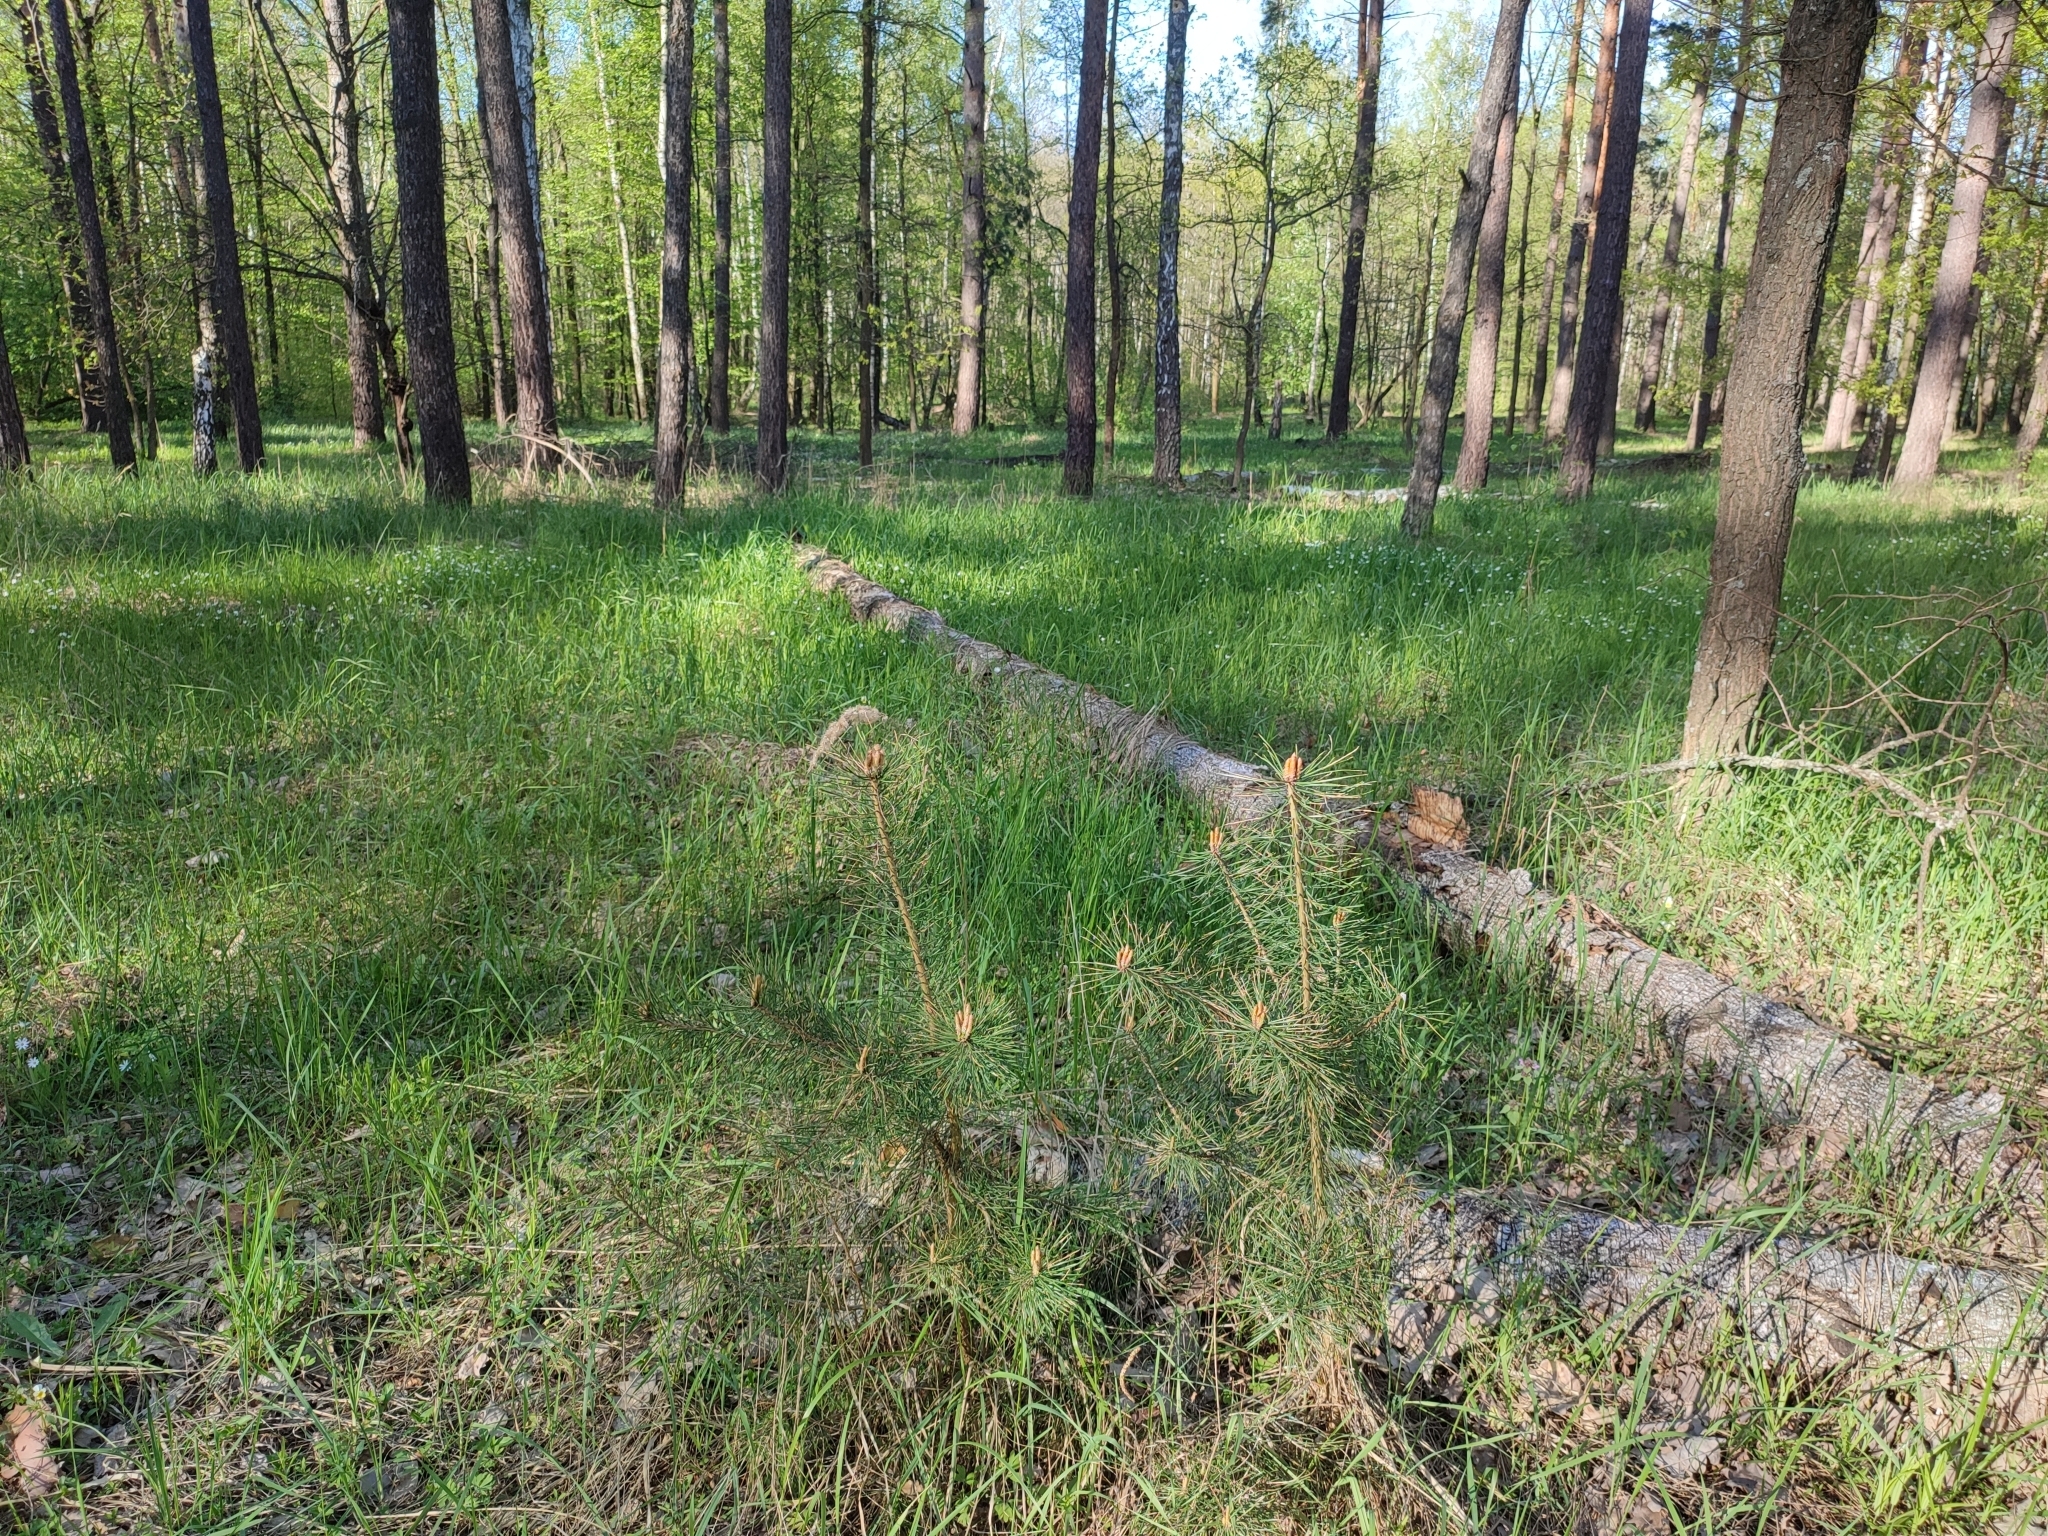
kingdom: Plantae
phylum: Tracheophyta
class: Pinopsida
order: Pinales
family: Pinaceae
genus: Pinus
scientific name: Pinus sylvestris
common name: Scots pine
